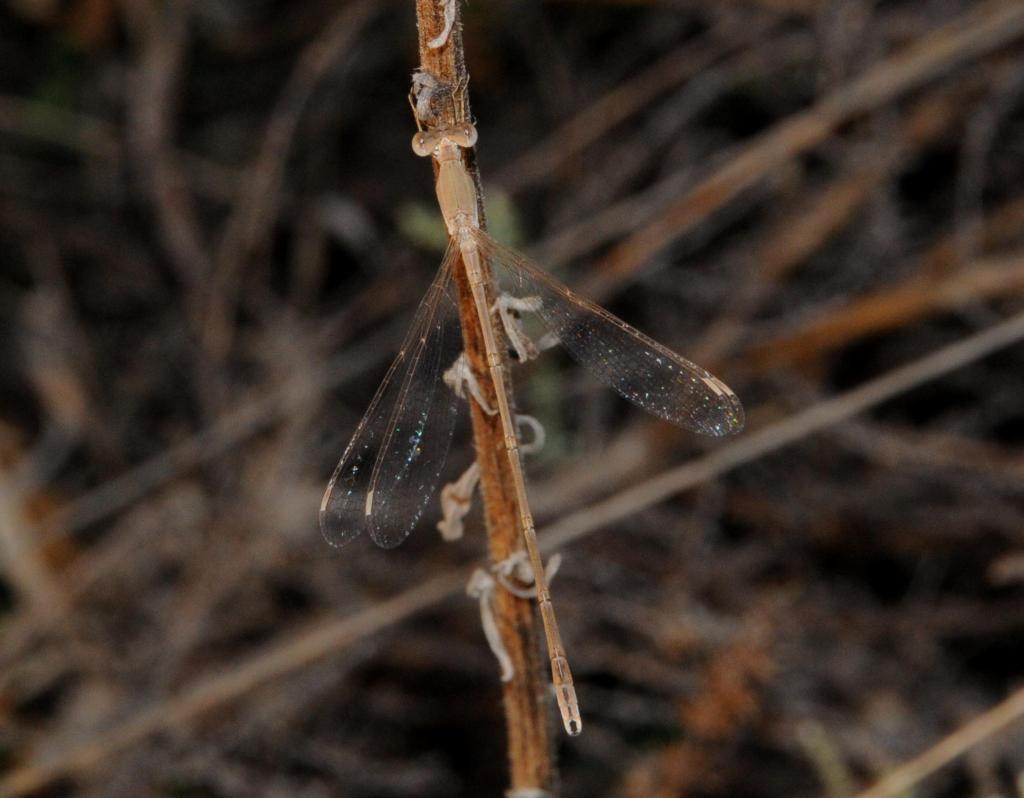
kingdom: Animalia
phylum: Arthropoda
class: Insecta
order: Odonata
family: Lestidae
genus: Lestes
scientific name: Lestes pallidus
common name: Pallid spreadwing
